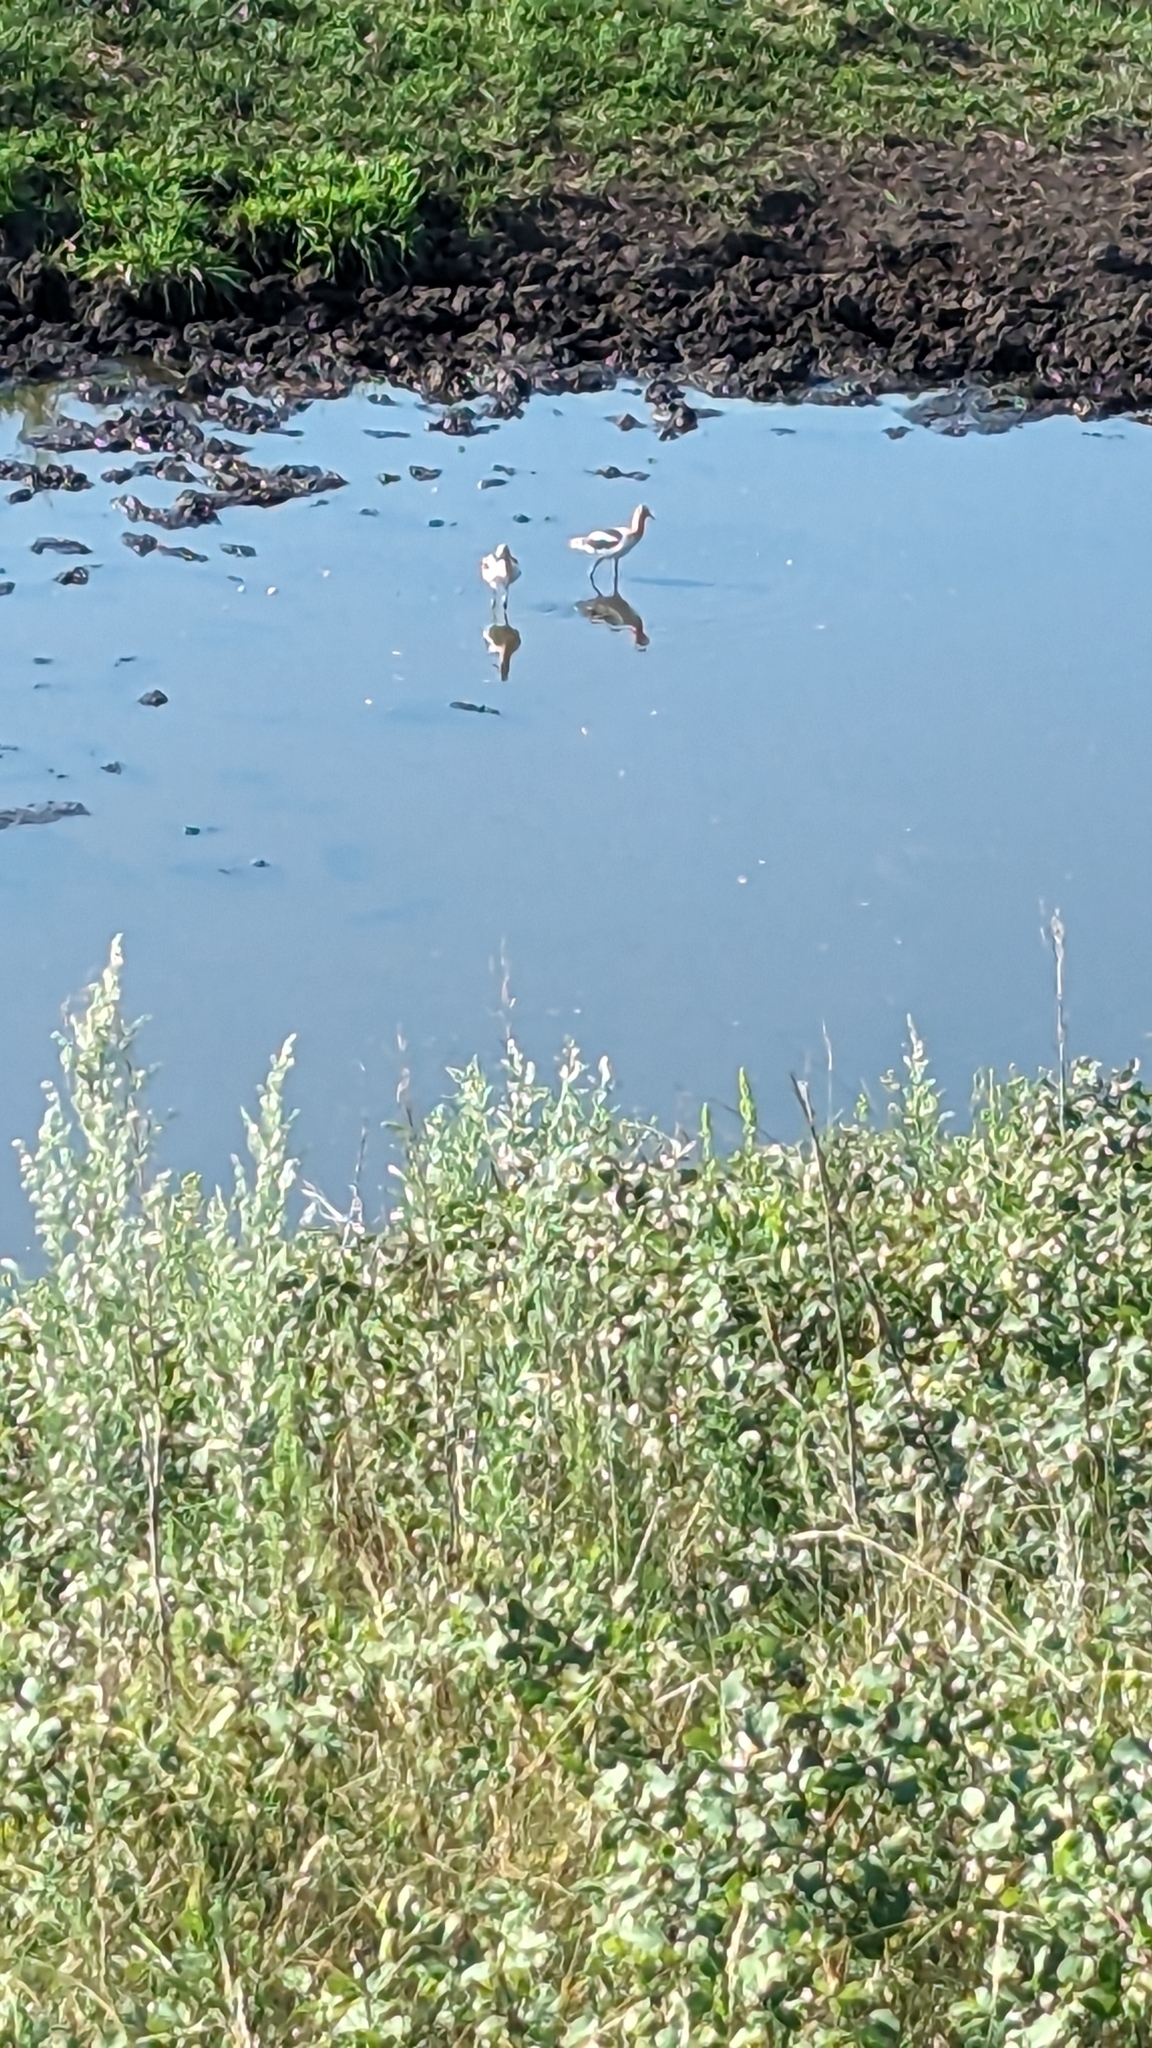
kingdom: Animalia
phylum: Chordata
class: Aves
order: Charadriiformes
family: Recurvirostridae
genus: Recurvirostra
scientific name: Recurvirostra americana
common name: American avocet
